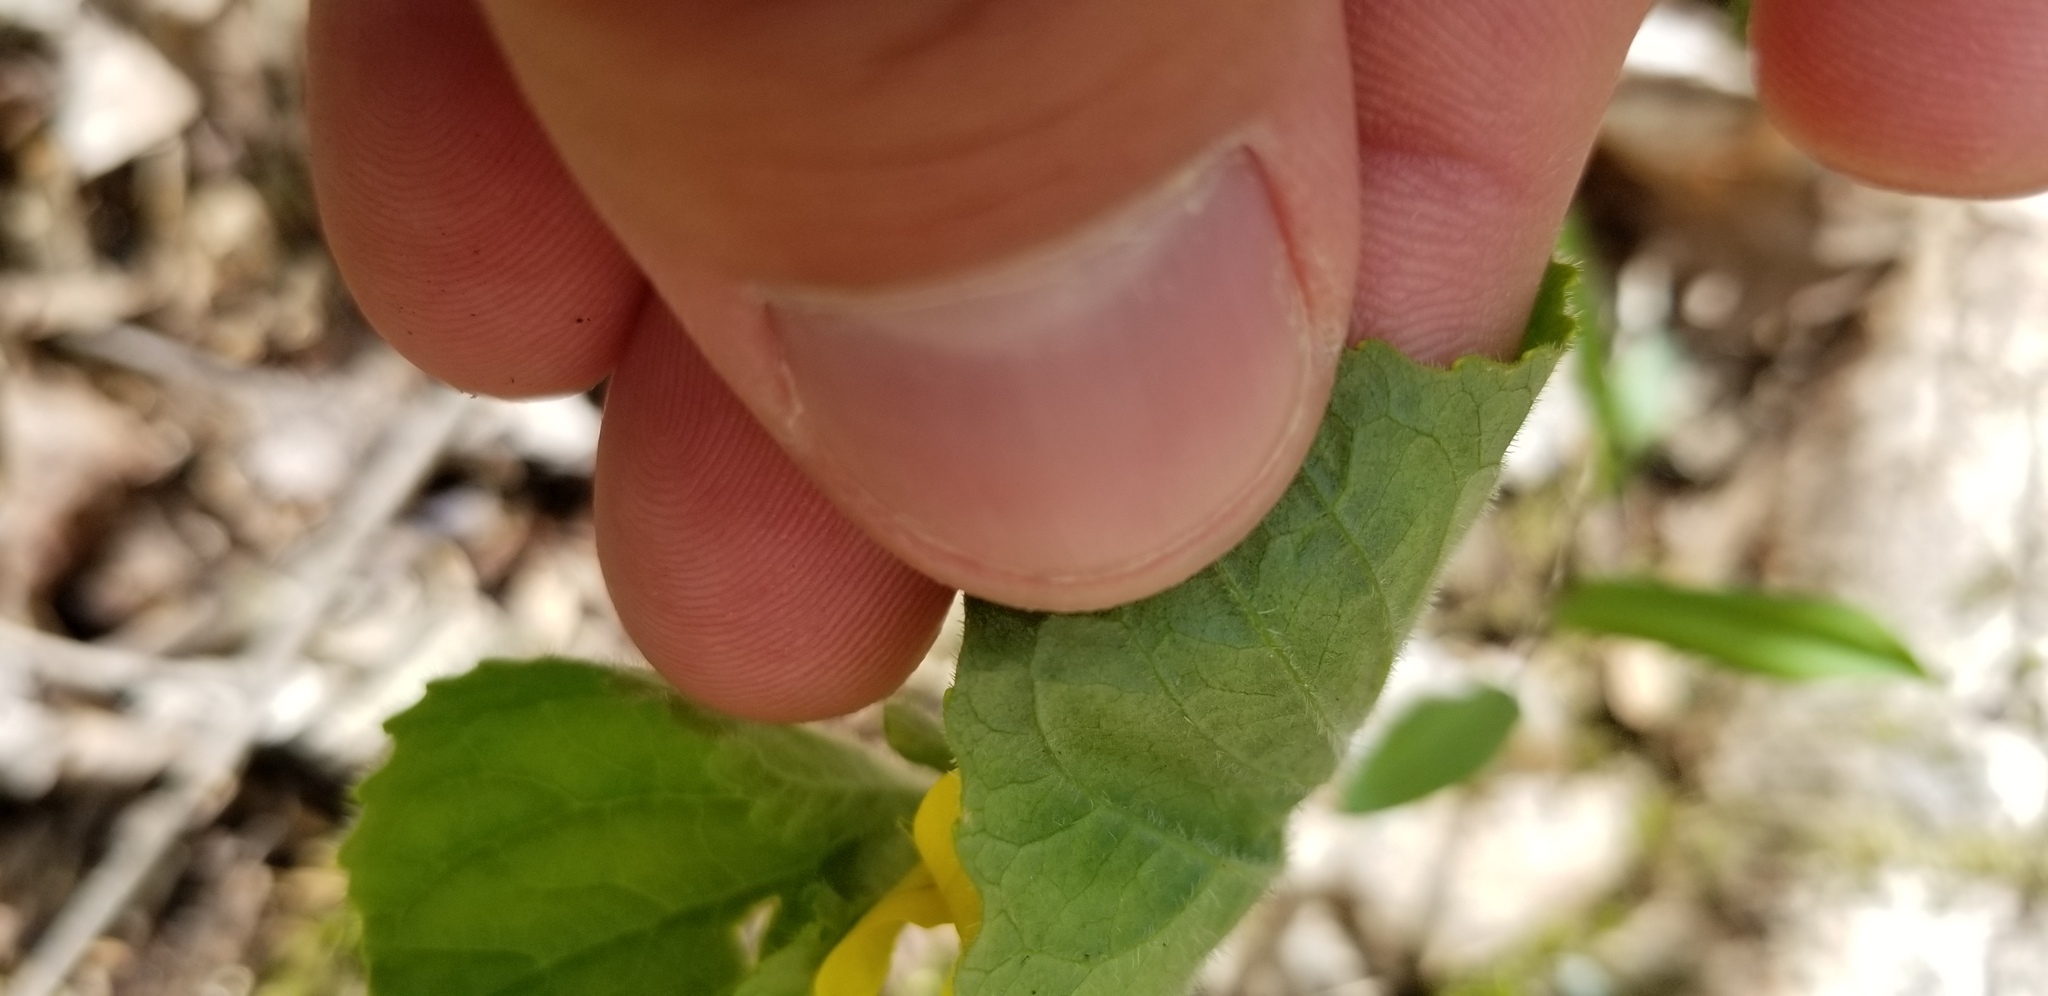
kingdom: Plantae
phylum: Tracheophyta
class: Magnoliopsida
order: Malpighiales
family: Violaceae
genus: Viola
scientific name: Viola pubescens
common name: Yellow forest violet
